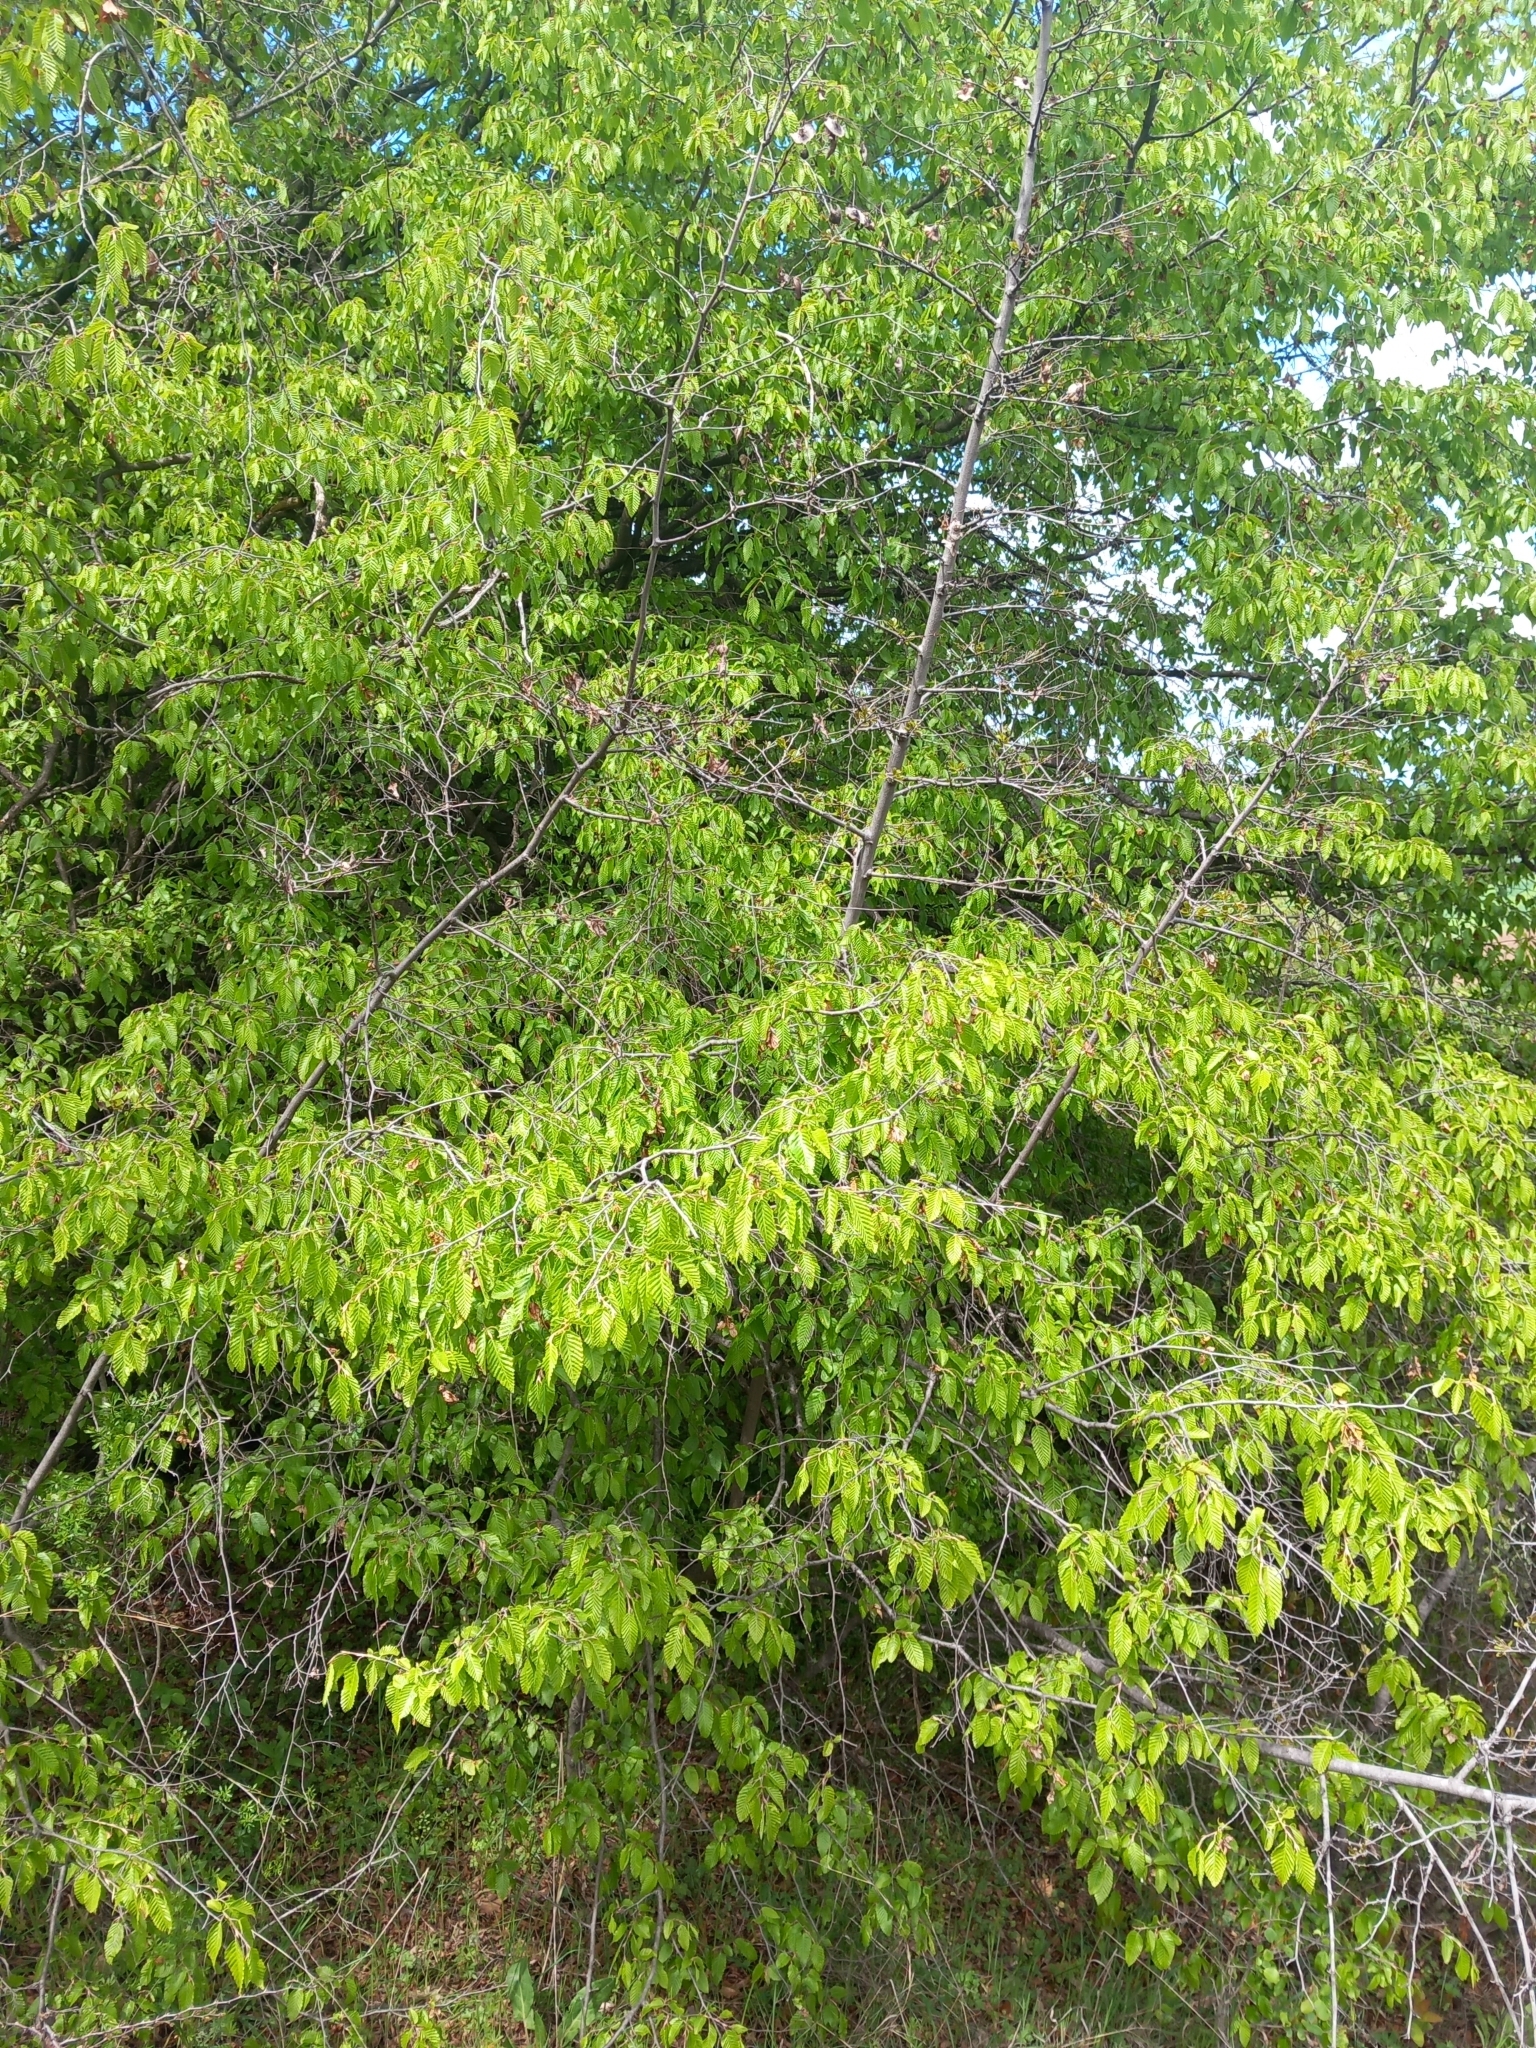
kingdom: Plantae
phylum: Tracheophyta
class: Magnoliopsida
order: Fagales
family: Betulaceae
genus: Carpinus
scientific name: Carpinus orientalis
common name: Eastern hornbeam
